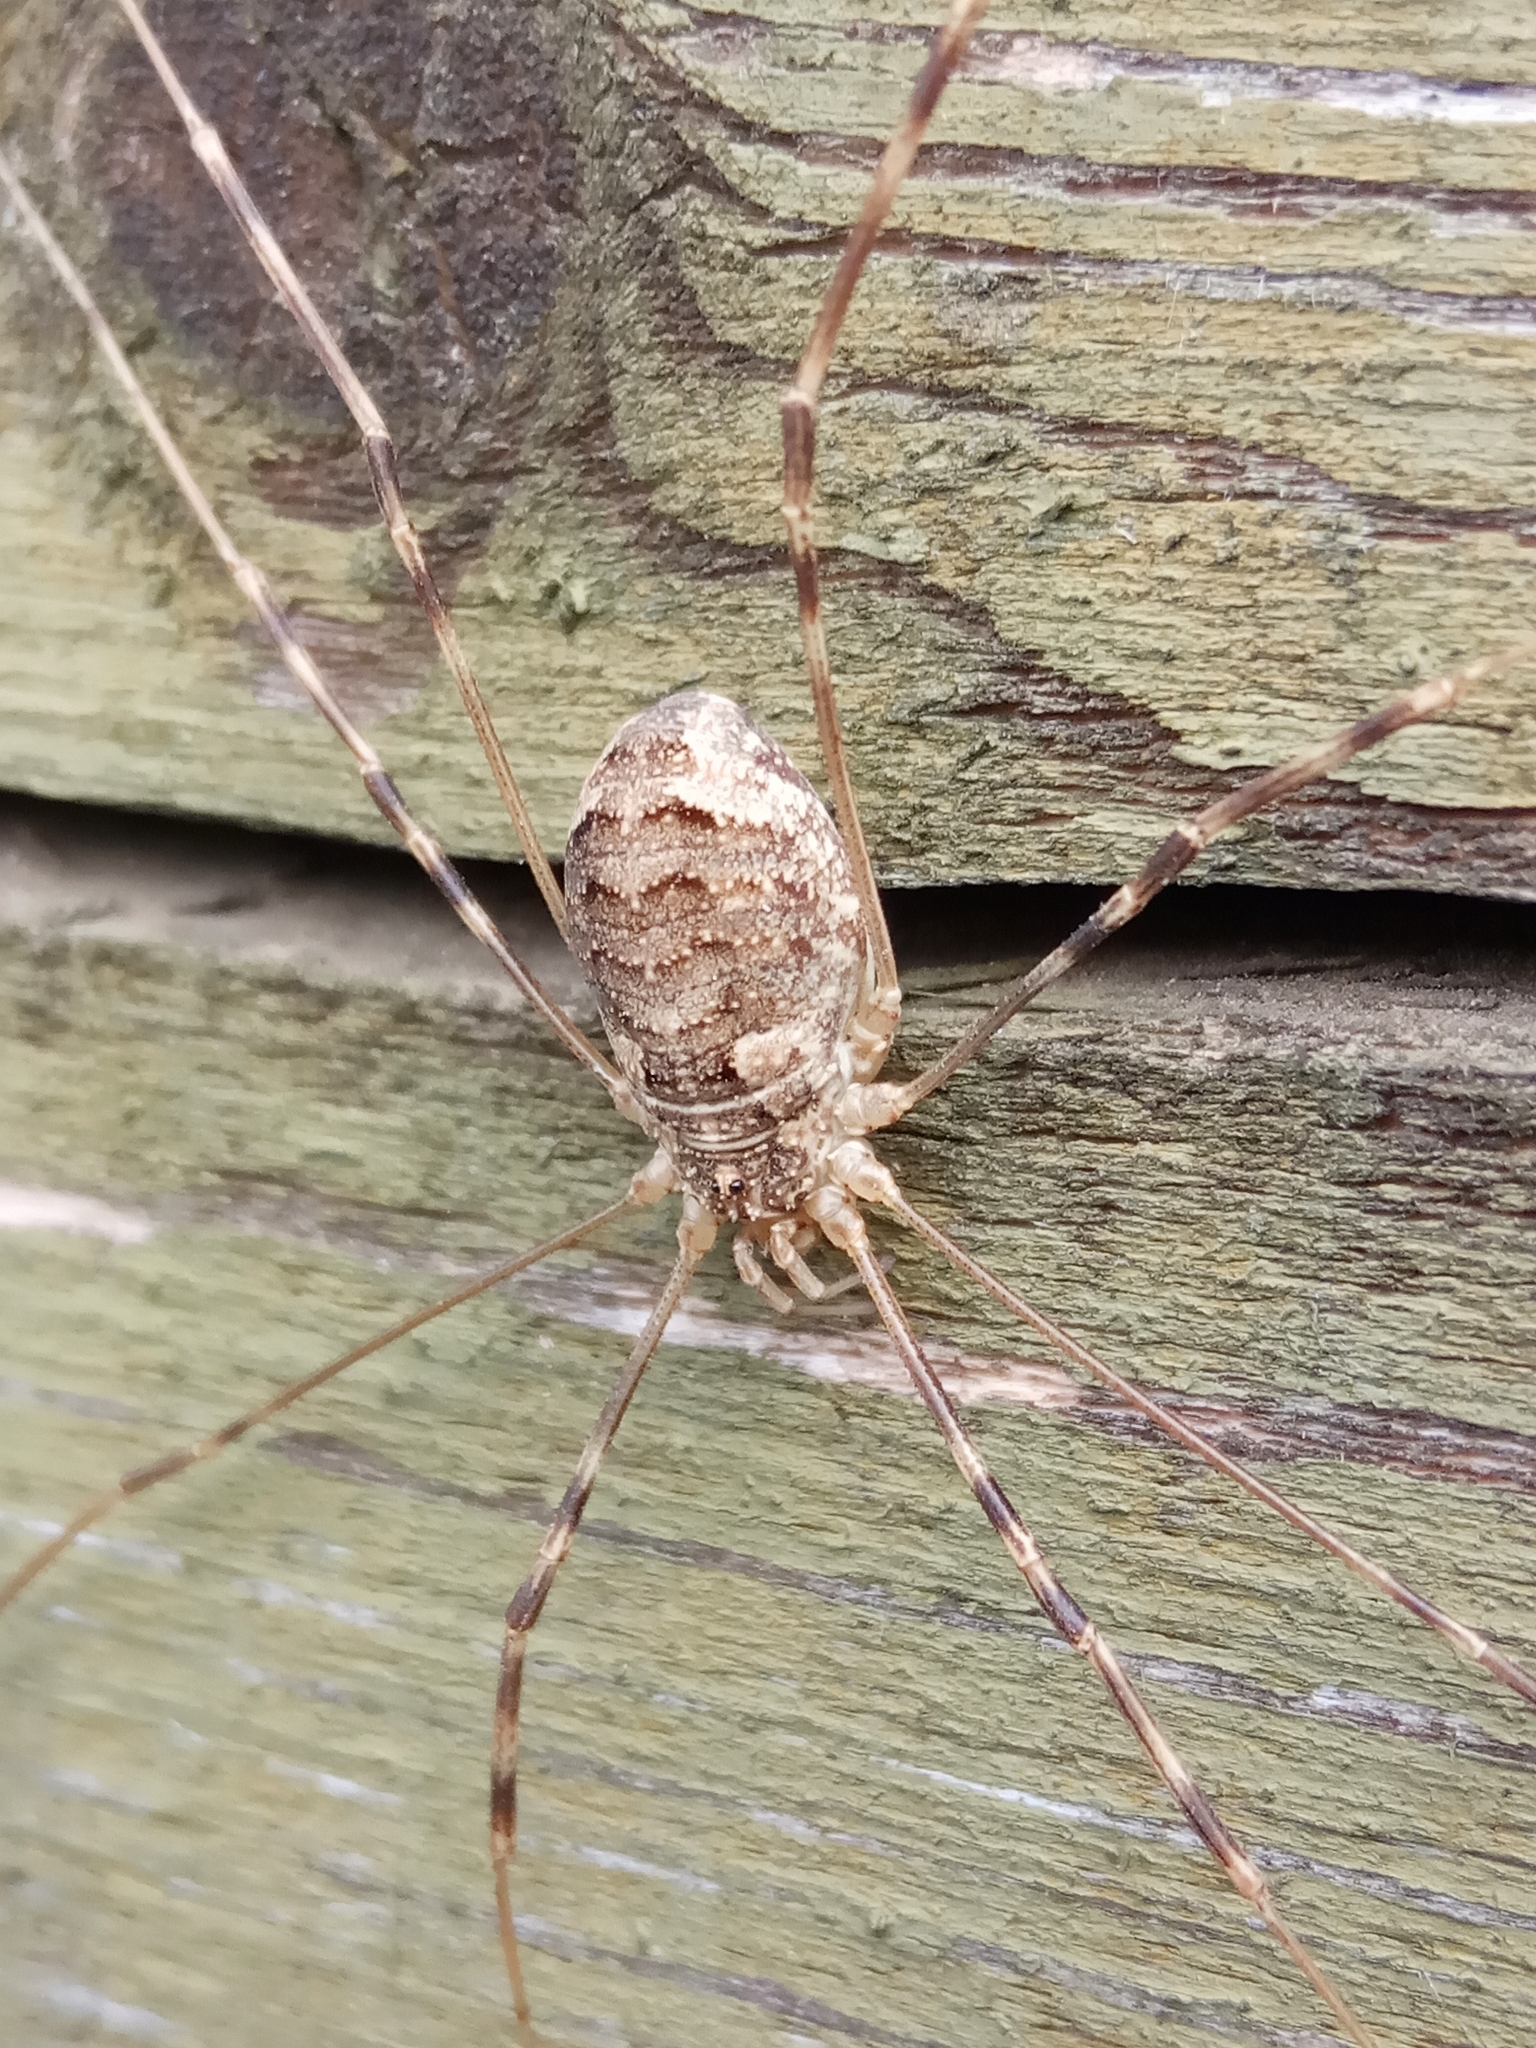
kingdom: Animalia
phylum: Arthropoda
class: Arachnida
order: Opiliones
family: Phalangiidae
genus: Opilio
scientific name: Opilio parietinus
